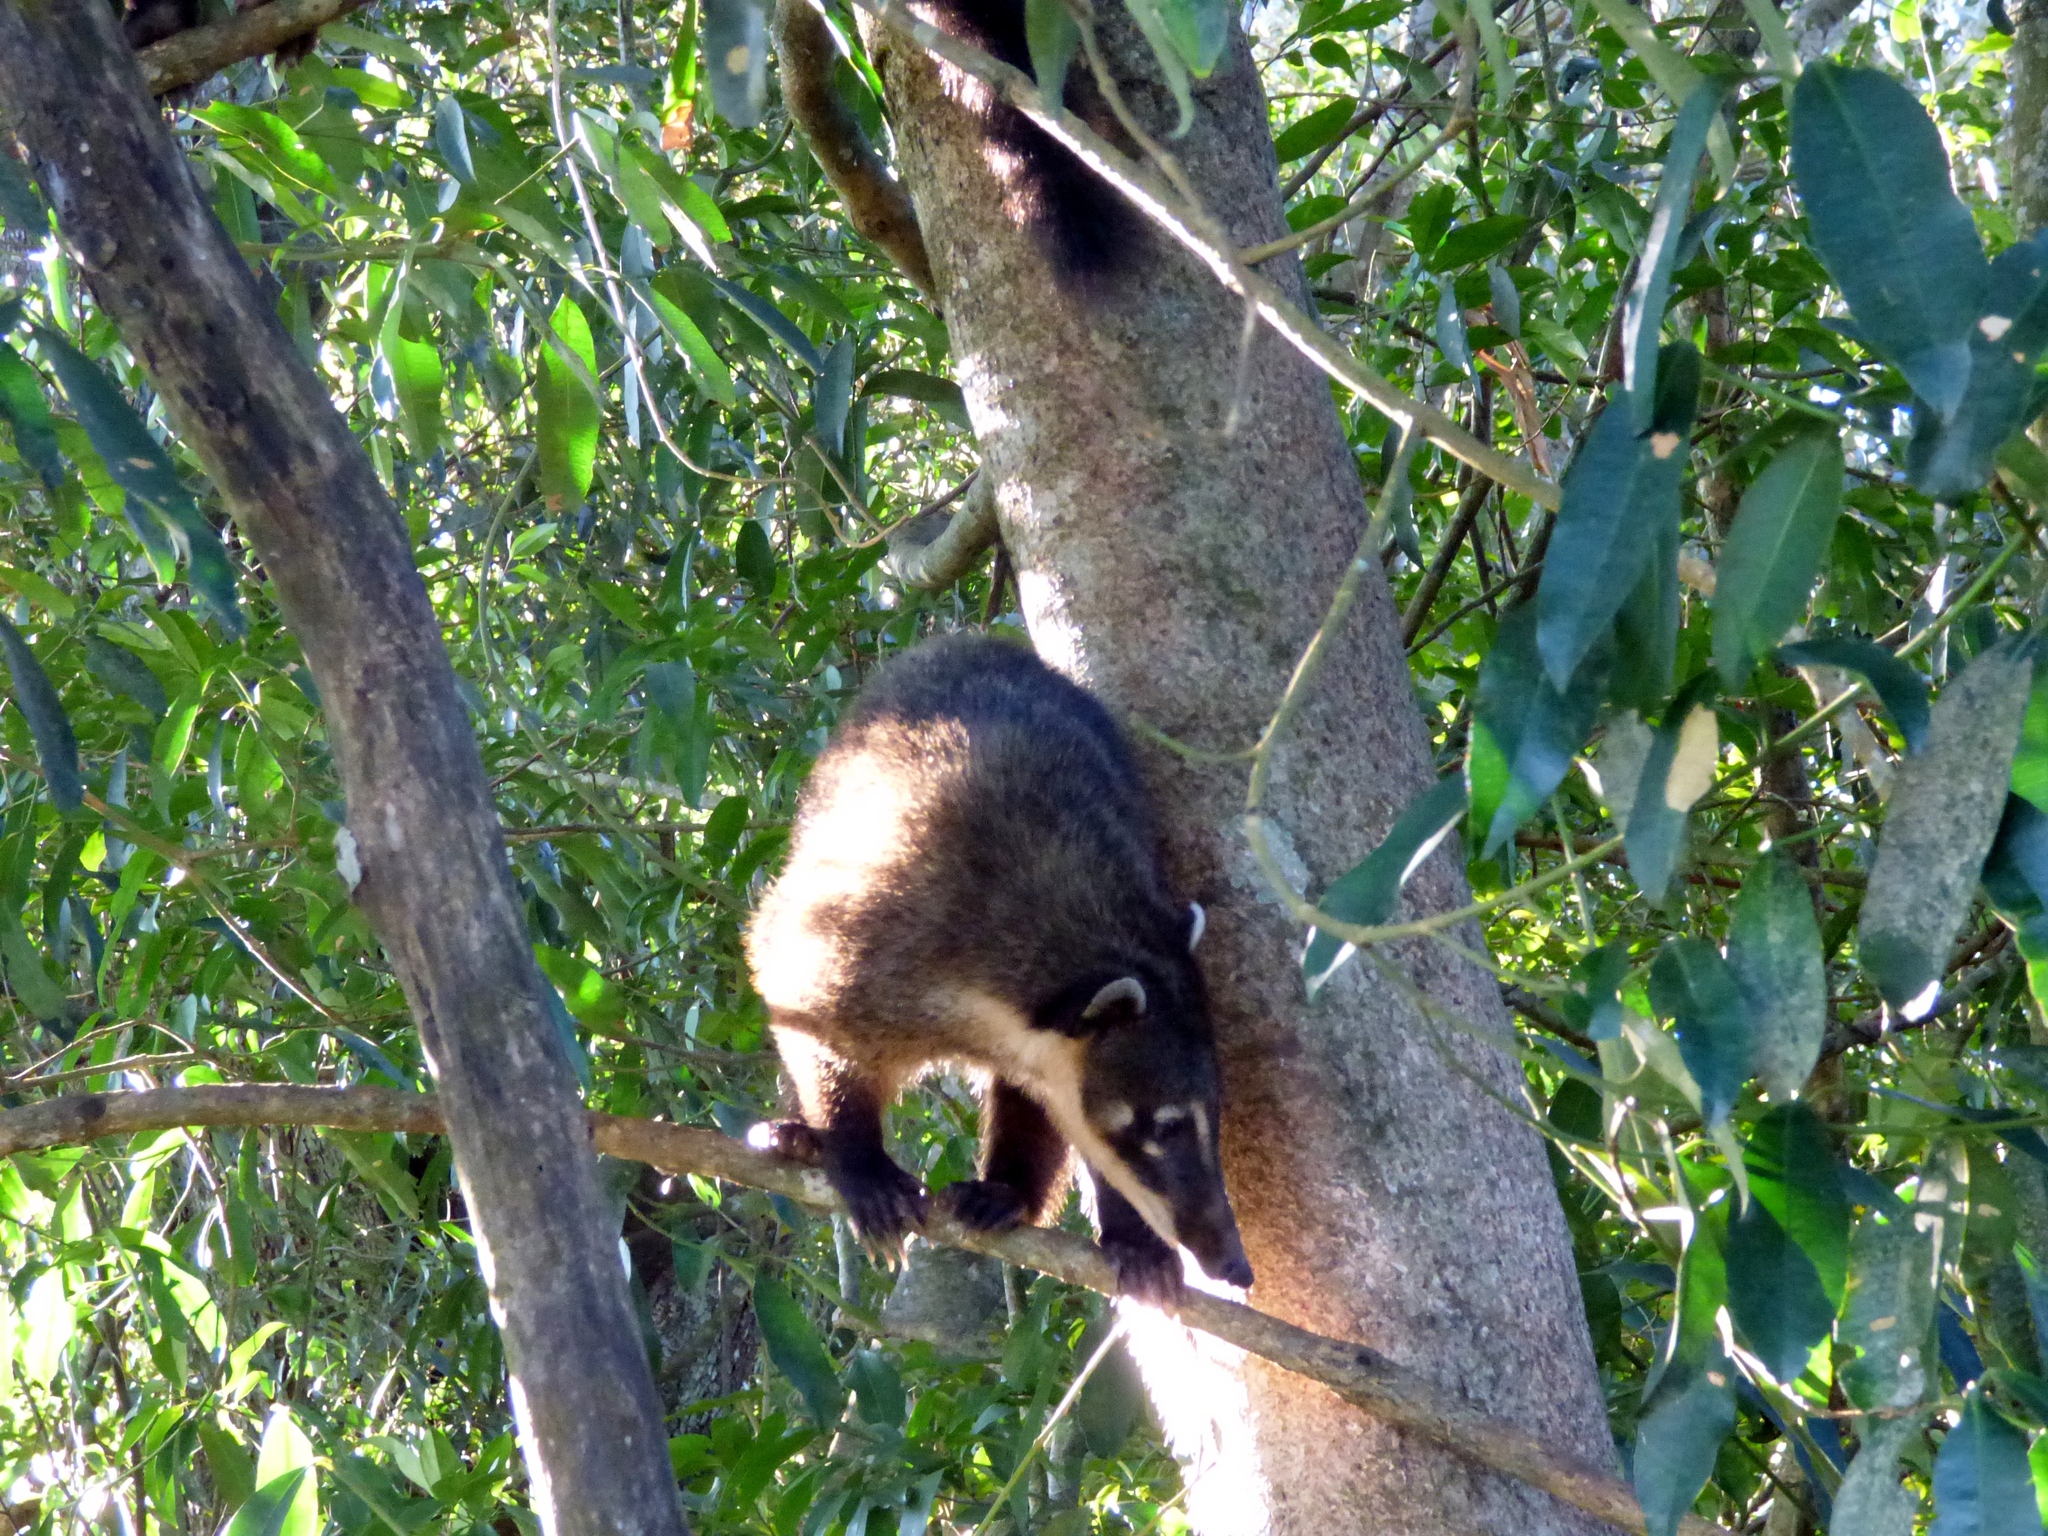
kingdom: Animalia
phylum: Chordata
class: Mammalia
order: Carnivora
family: Procyonidae
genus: Nasua
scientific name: Nasua nasua
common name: South american coati
